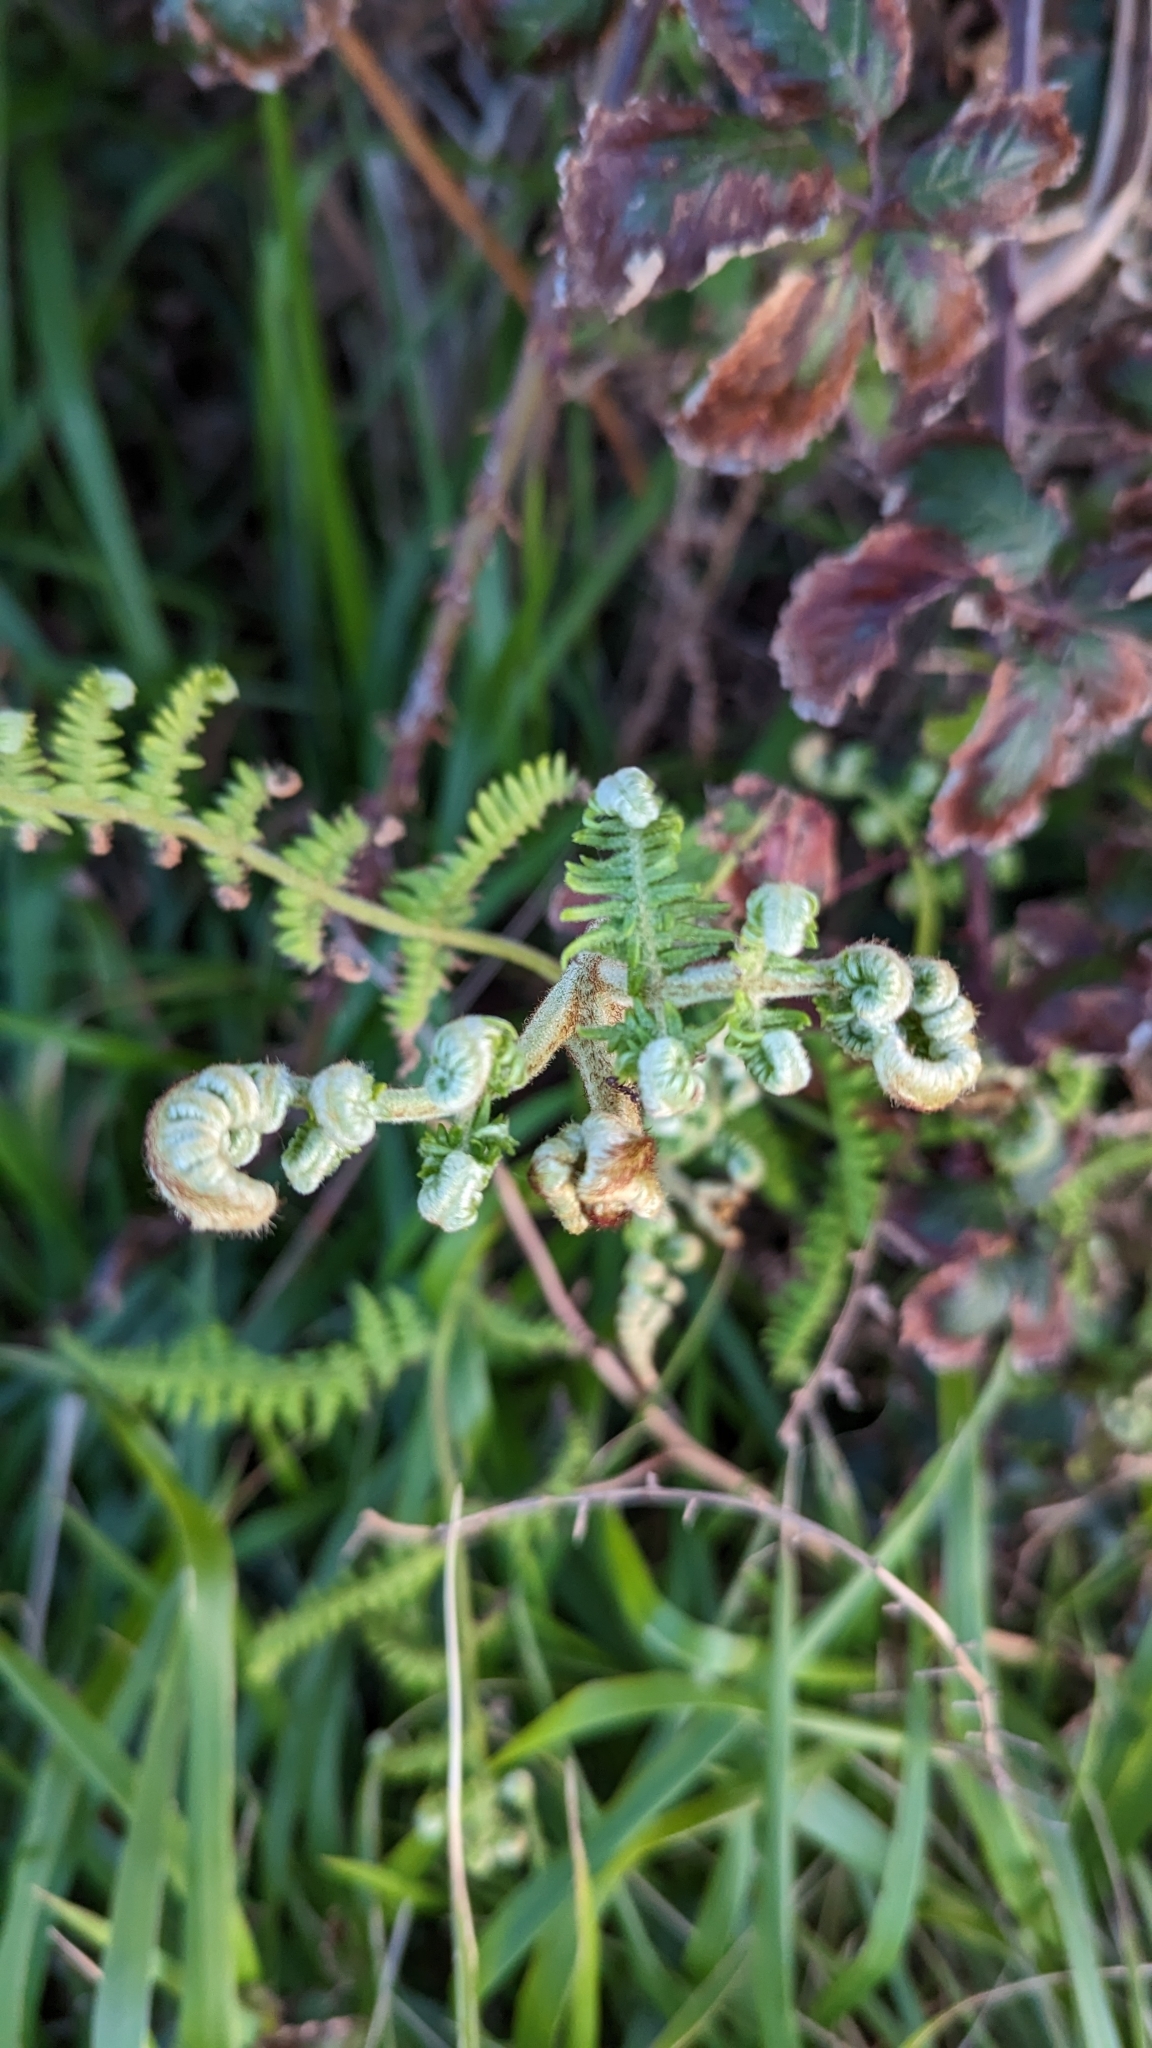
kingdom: Plantae
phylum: Tracheophyta
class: Polypodiopsida
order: Polypodiales
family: Dennstaedtiaceae
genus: Pteridium
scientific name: Pteridium aquilinum
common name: Bracken
